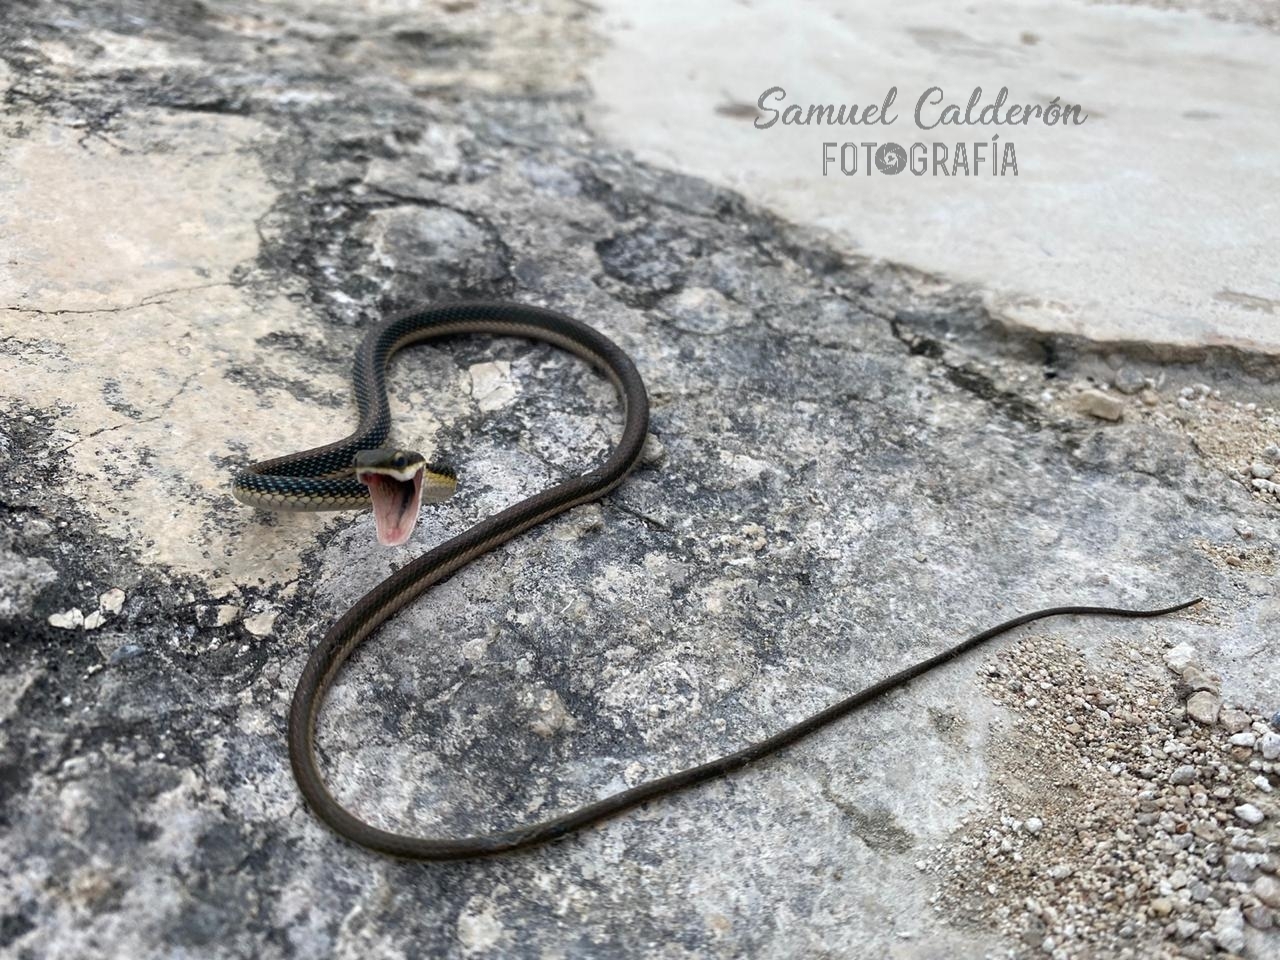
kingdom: Animalia
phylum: Chordata
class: Squamata
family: Colubridae
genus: Leptophis
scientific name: Leptophis mexicanus
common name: Mexican parrot snake
